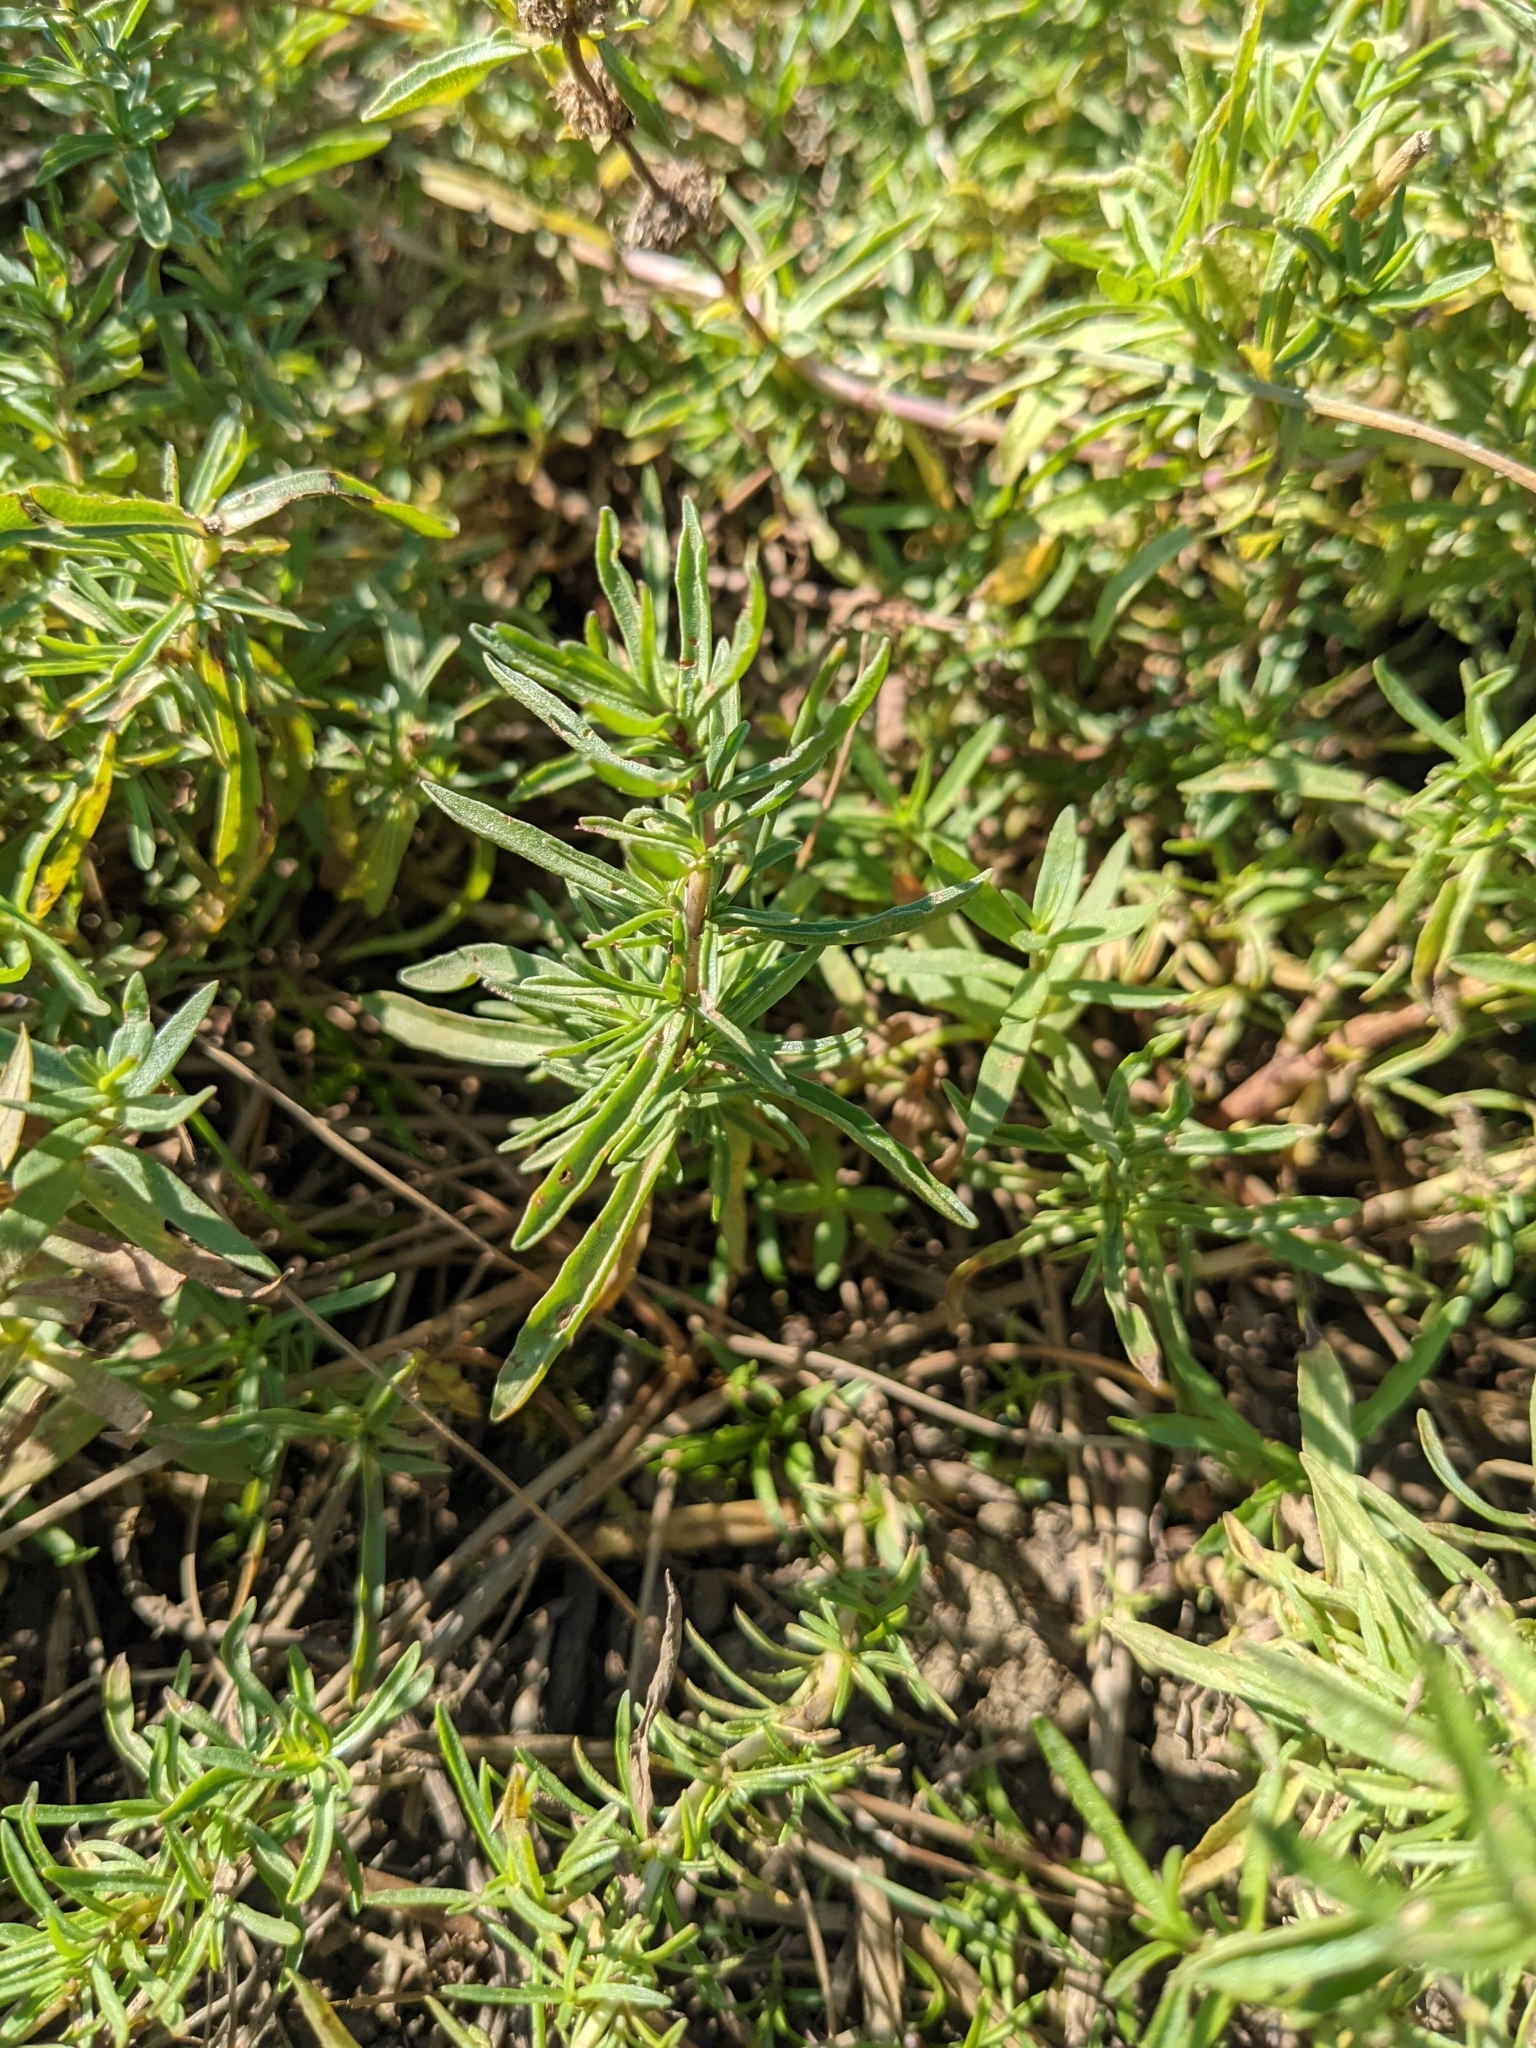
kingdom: Plantae
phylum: Tracheophyta
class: Magnoliopsida
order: Lamiales
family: Lamiaceae
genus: Mentha
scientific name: Mentha cervina
